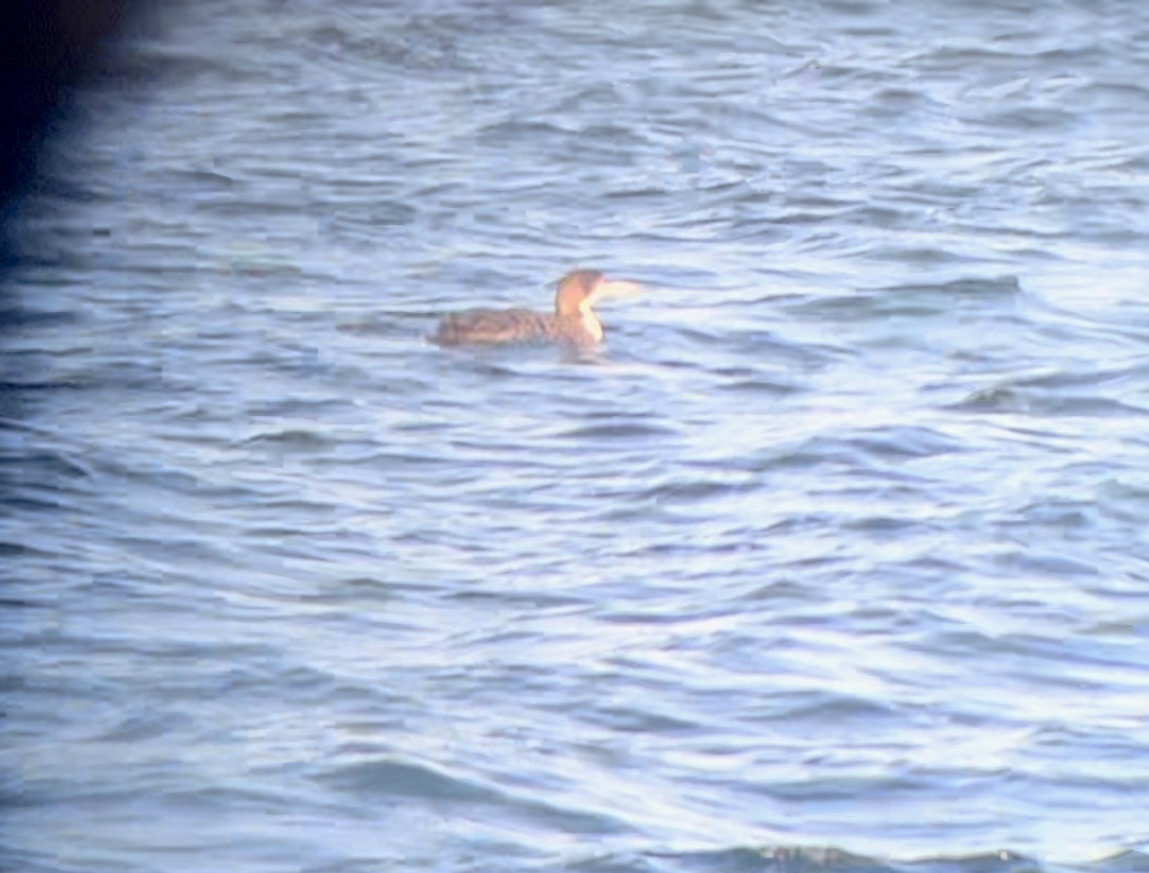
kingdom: Animalia
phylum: Chordata
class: Aves
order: Gaviiformes
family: Gaviidae
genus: Gavia
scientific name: Gavia immer
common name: Common loon
